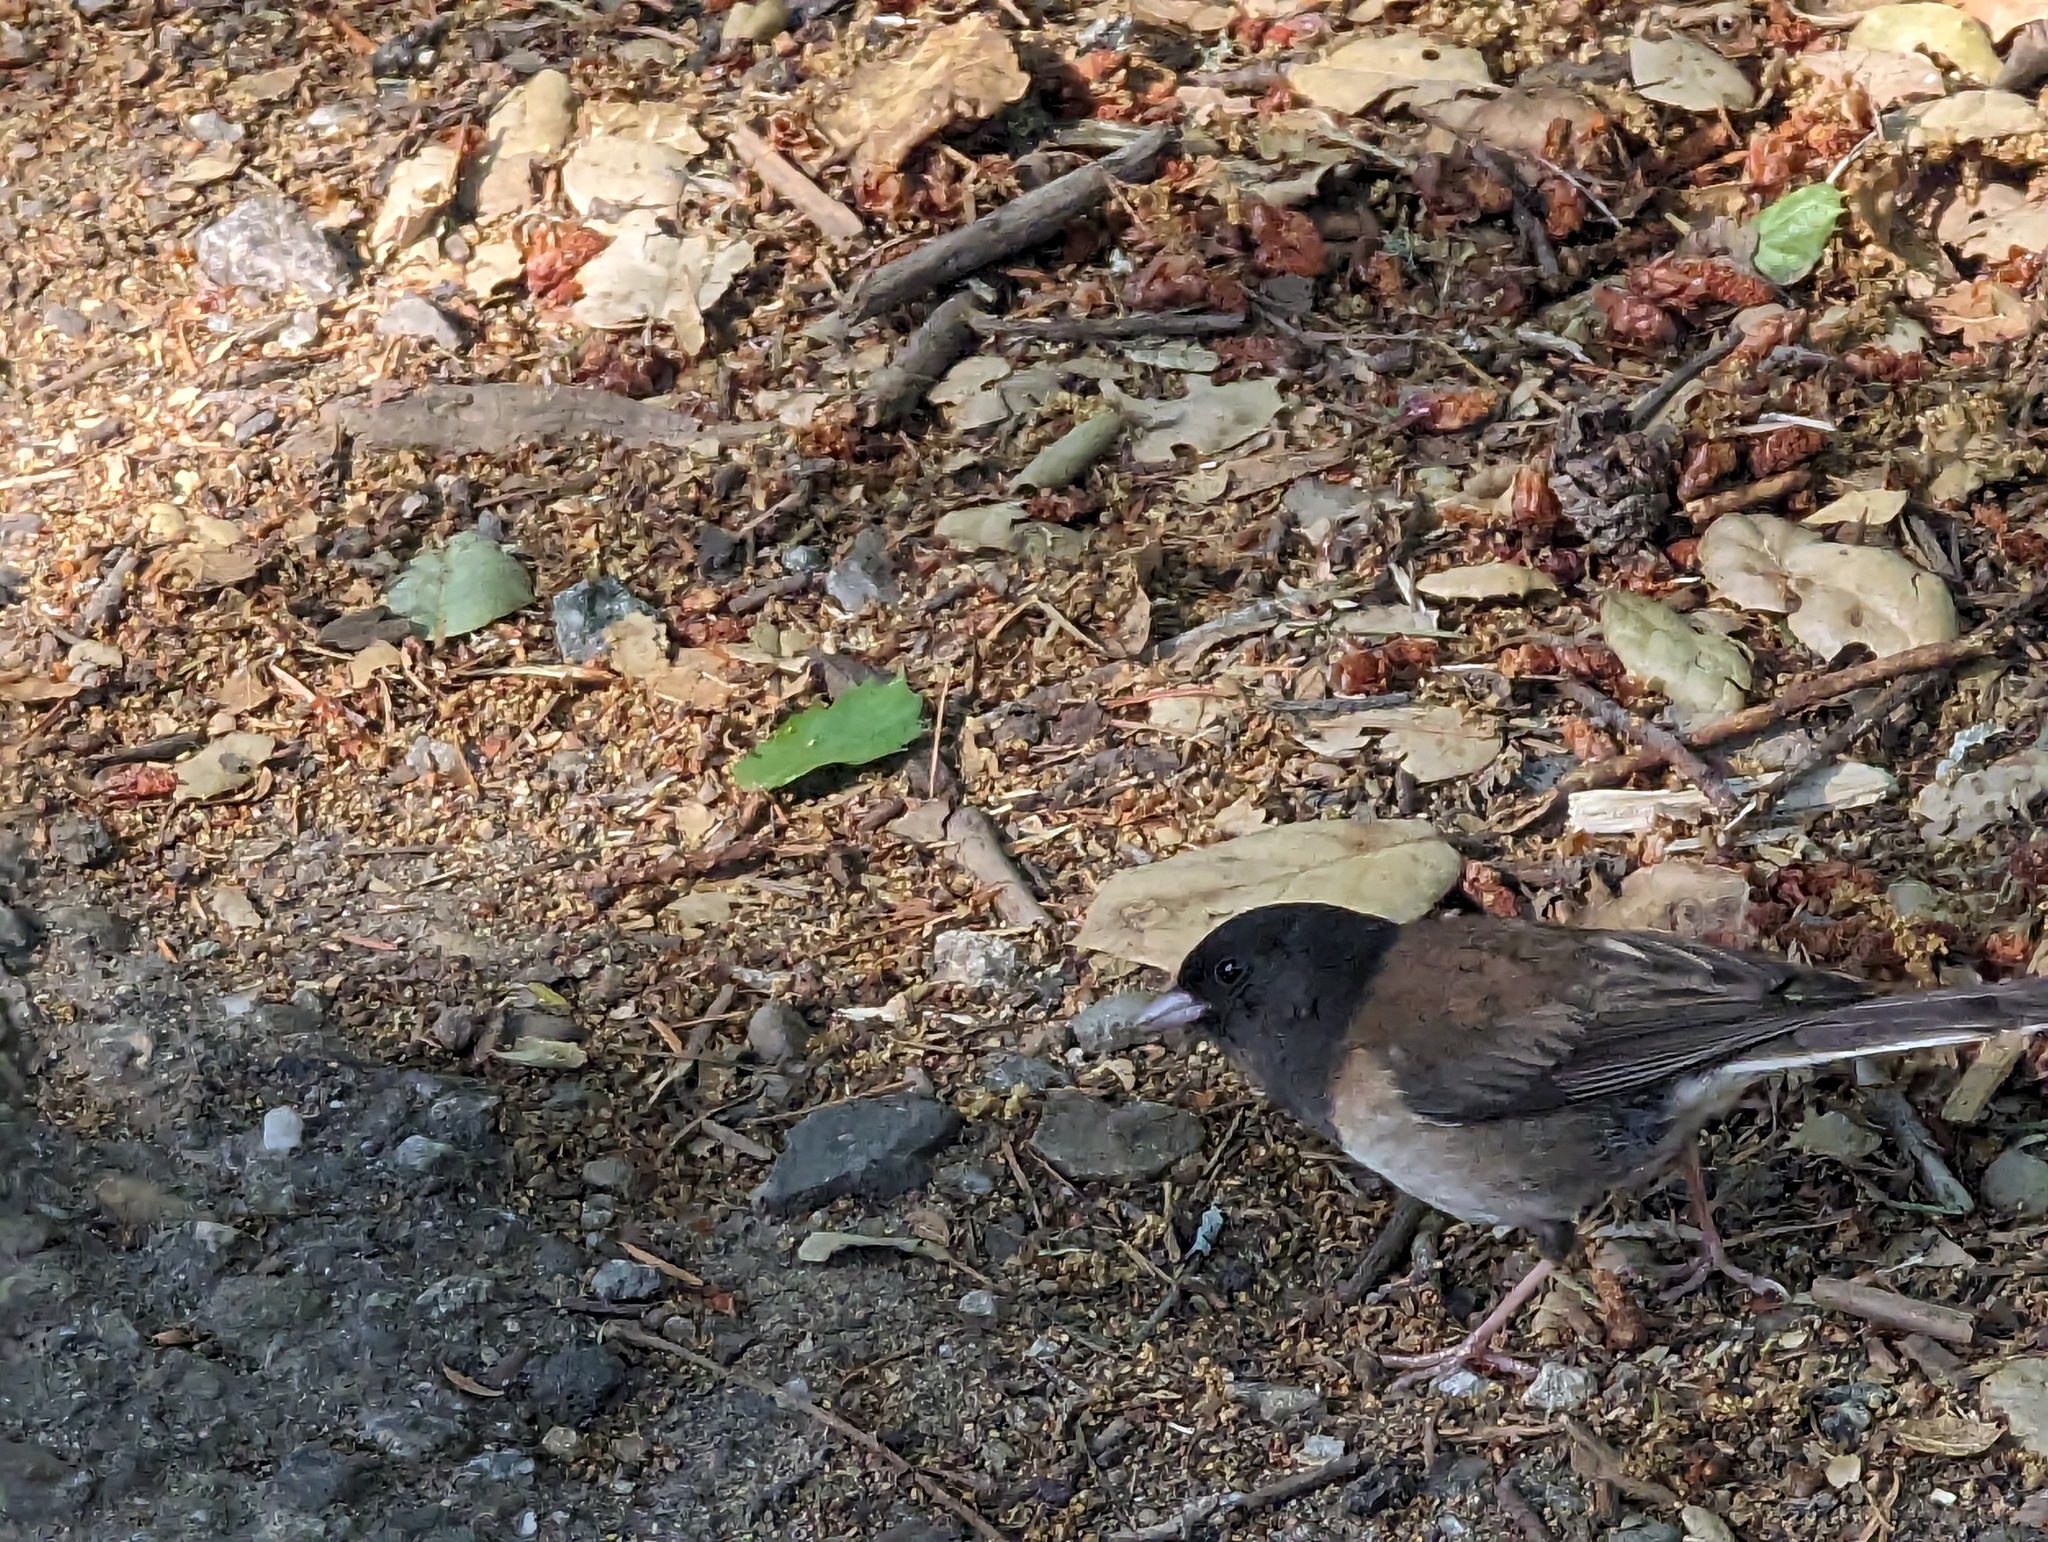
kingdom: Animalia
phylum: Chordata
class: Aves
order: Passeriformes
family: Passerellidae
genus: Junco
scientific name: Junco hyemalis
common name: Dark-eyed junco
